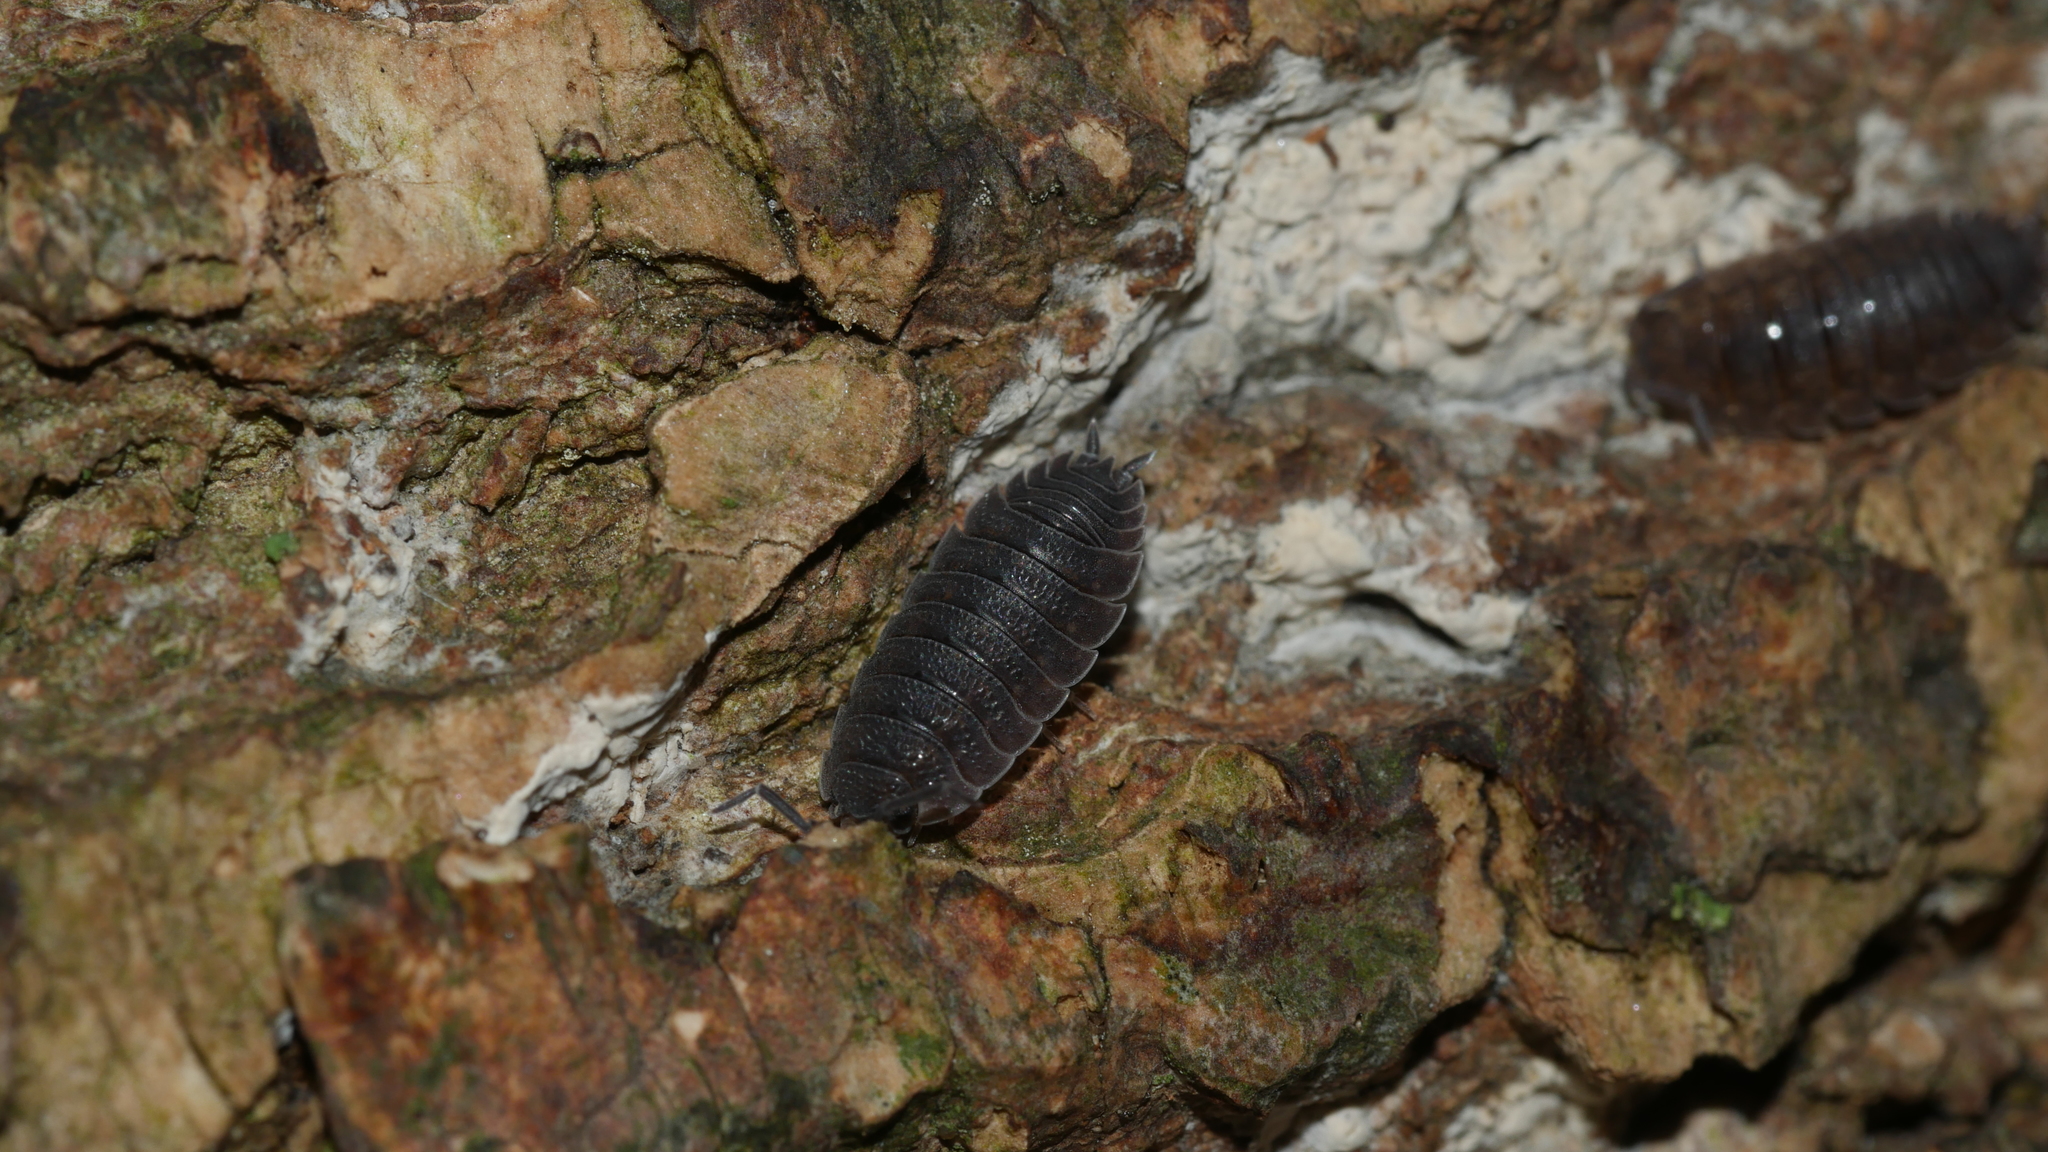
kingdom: Animalia
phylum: Arthropoda
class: Malacostraca
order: Isopoda
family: Porcellionidae
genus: Porcellio
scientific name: Porcellio scaber
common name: Common rough woodlouse
